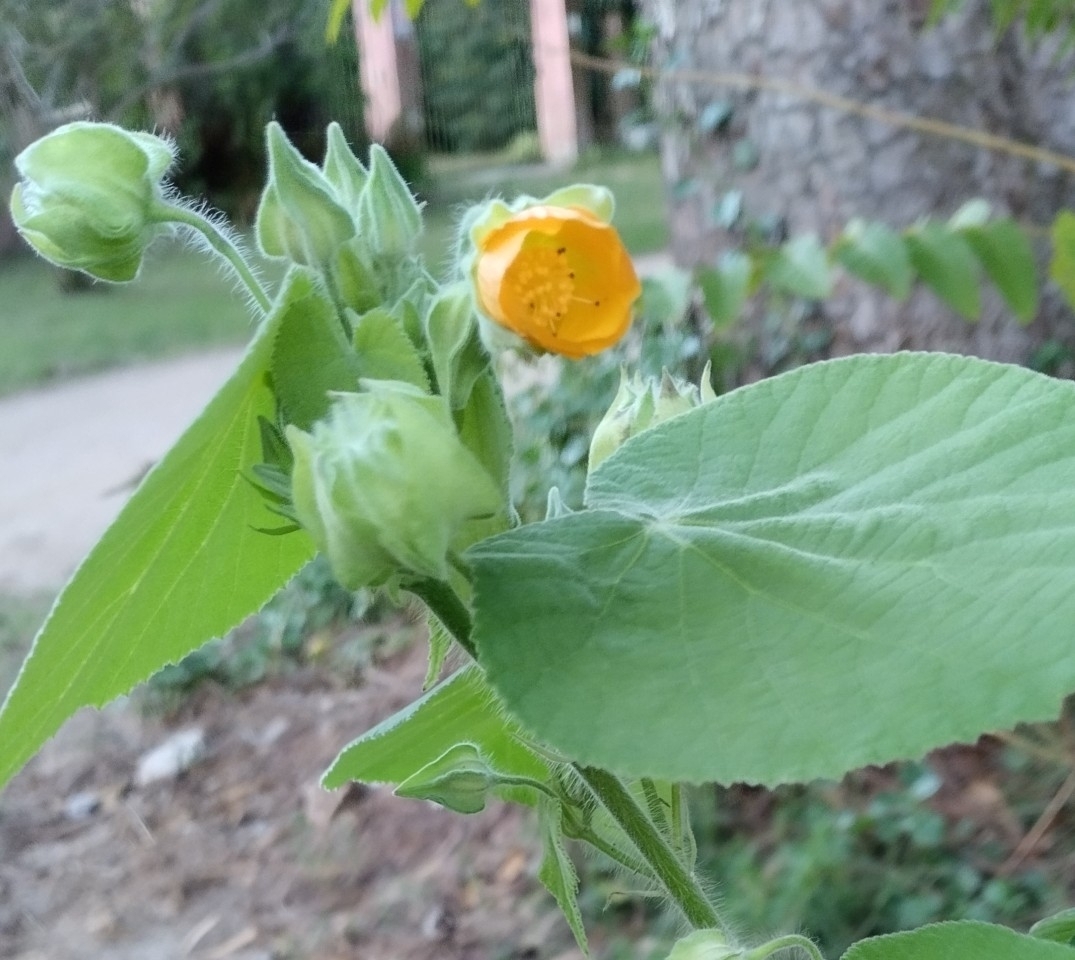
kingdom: Plantae
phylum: Tracheophyta
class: Magnoliopsida
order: Malvales
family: Malvaceae
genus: Abutilon
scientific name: Abutilon grandifolium
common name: Hairy abutilon
